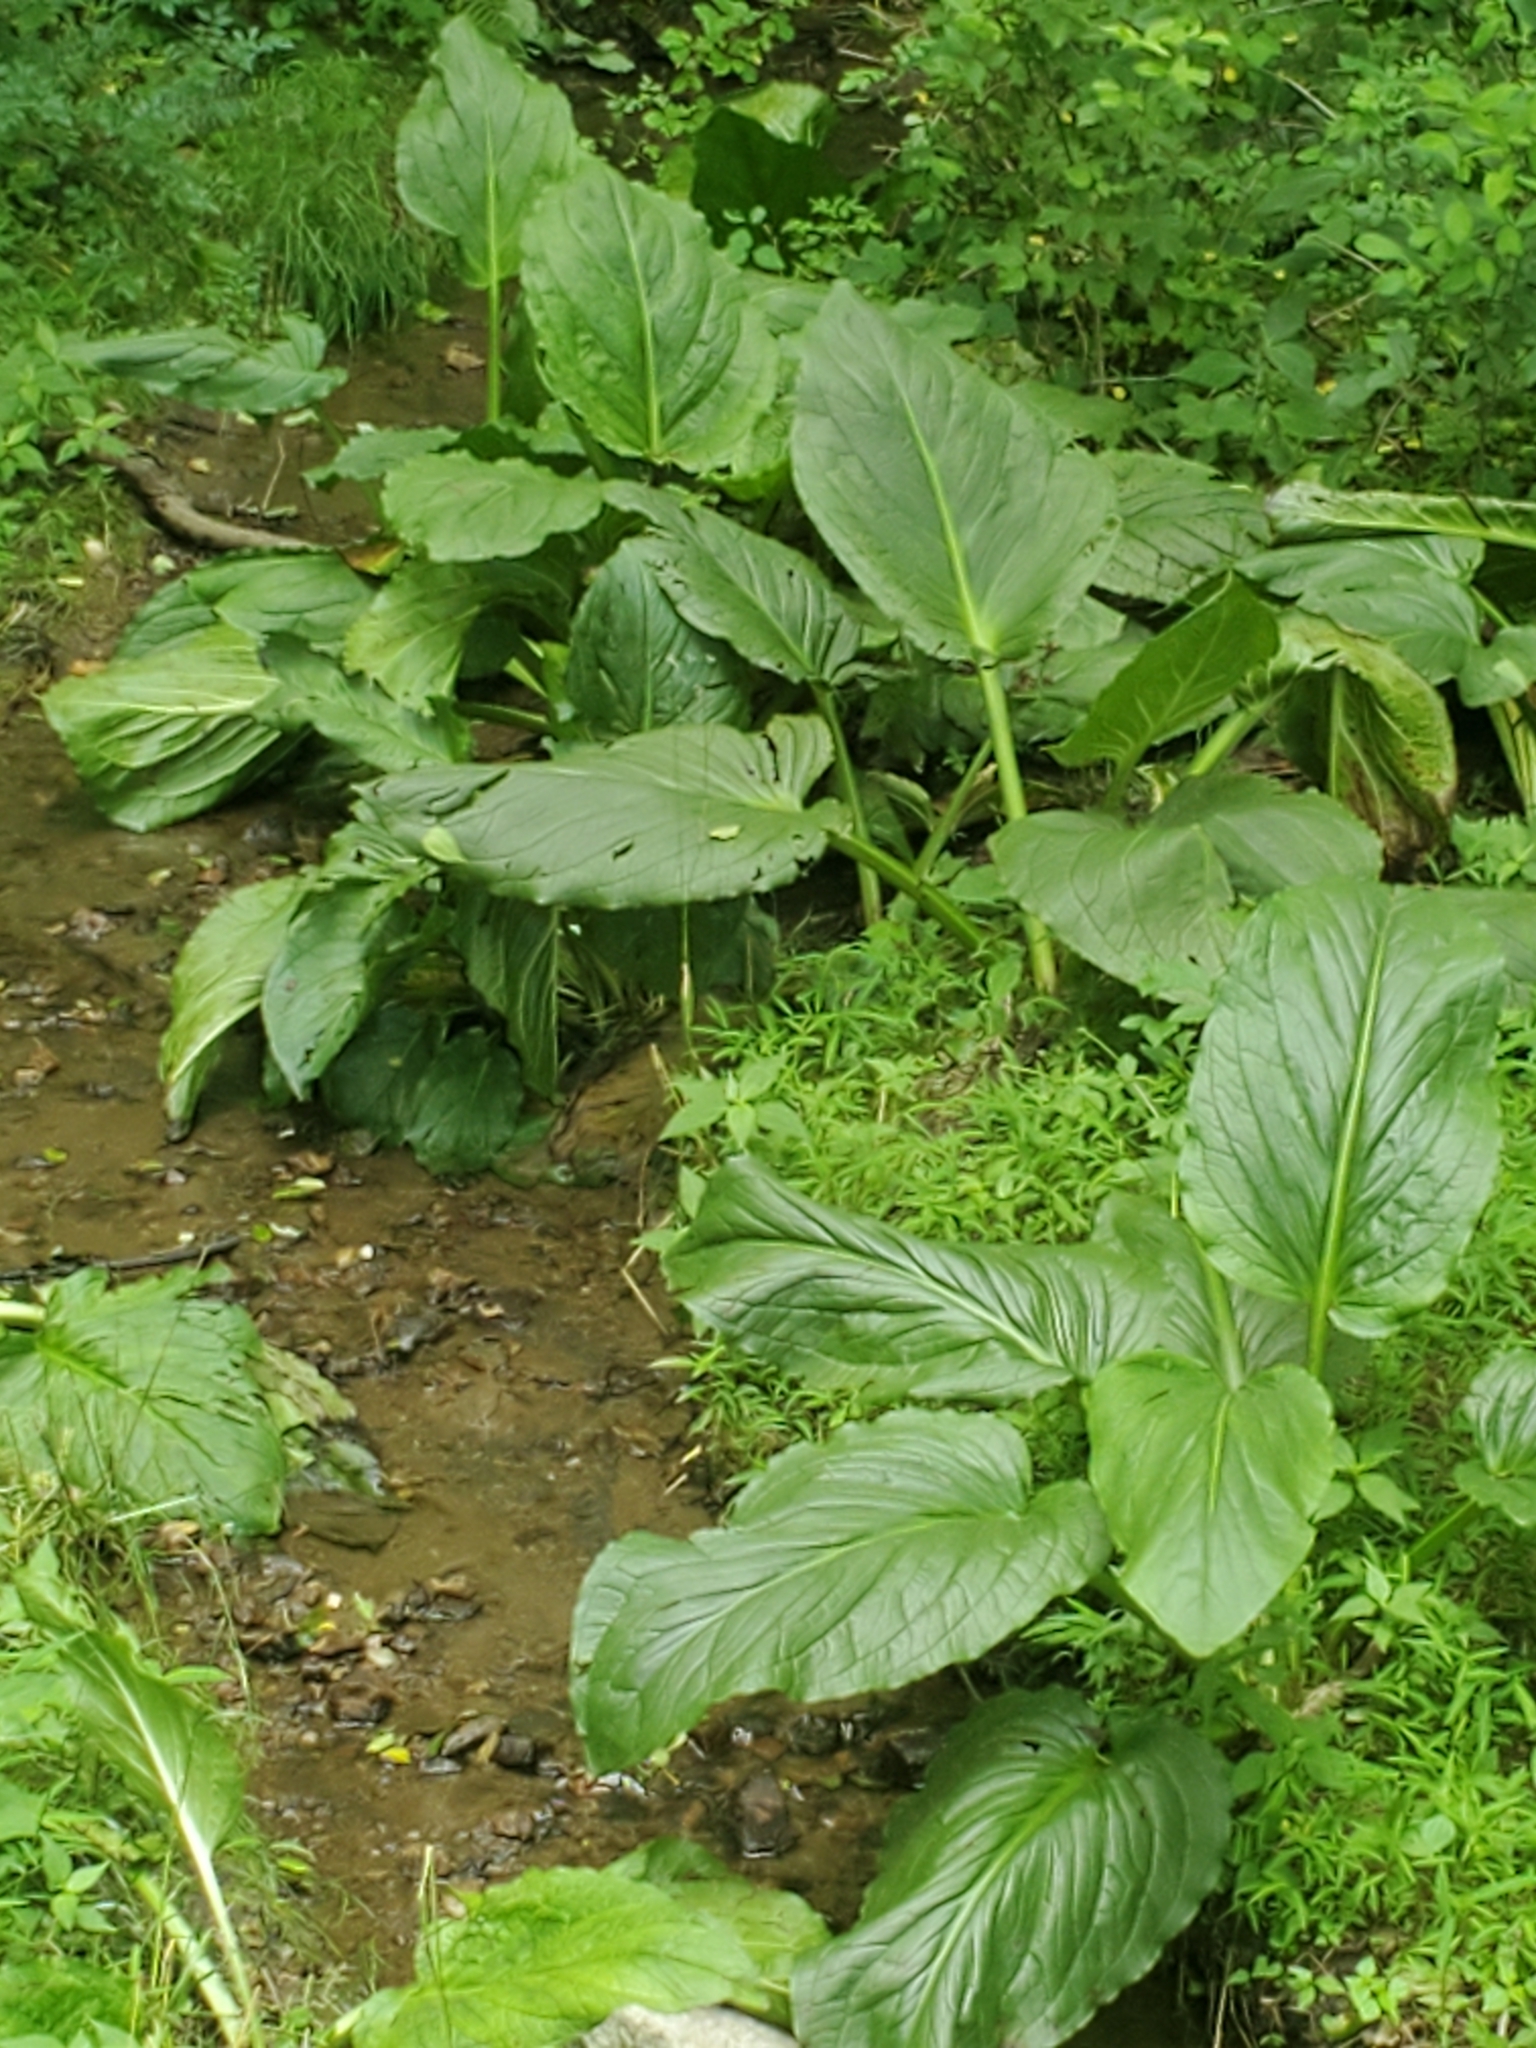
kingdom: Plantae
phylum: Tracheophyta
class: Liliopsida
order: Alismatales
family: Araceae
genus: Symplocarpus
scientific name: Symplocarpus foetidus
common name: Eastern skunk cabbage
